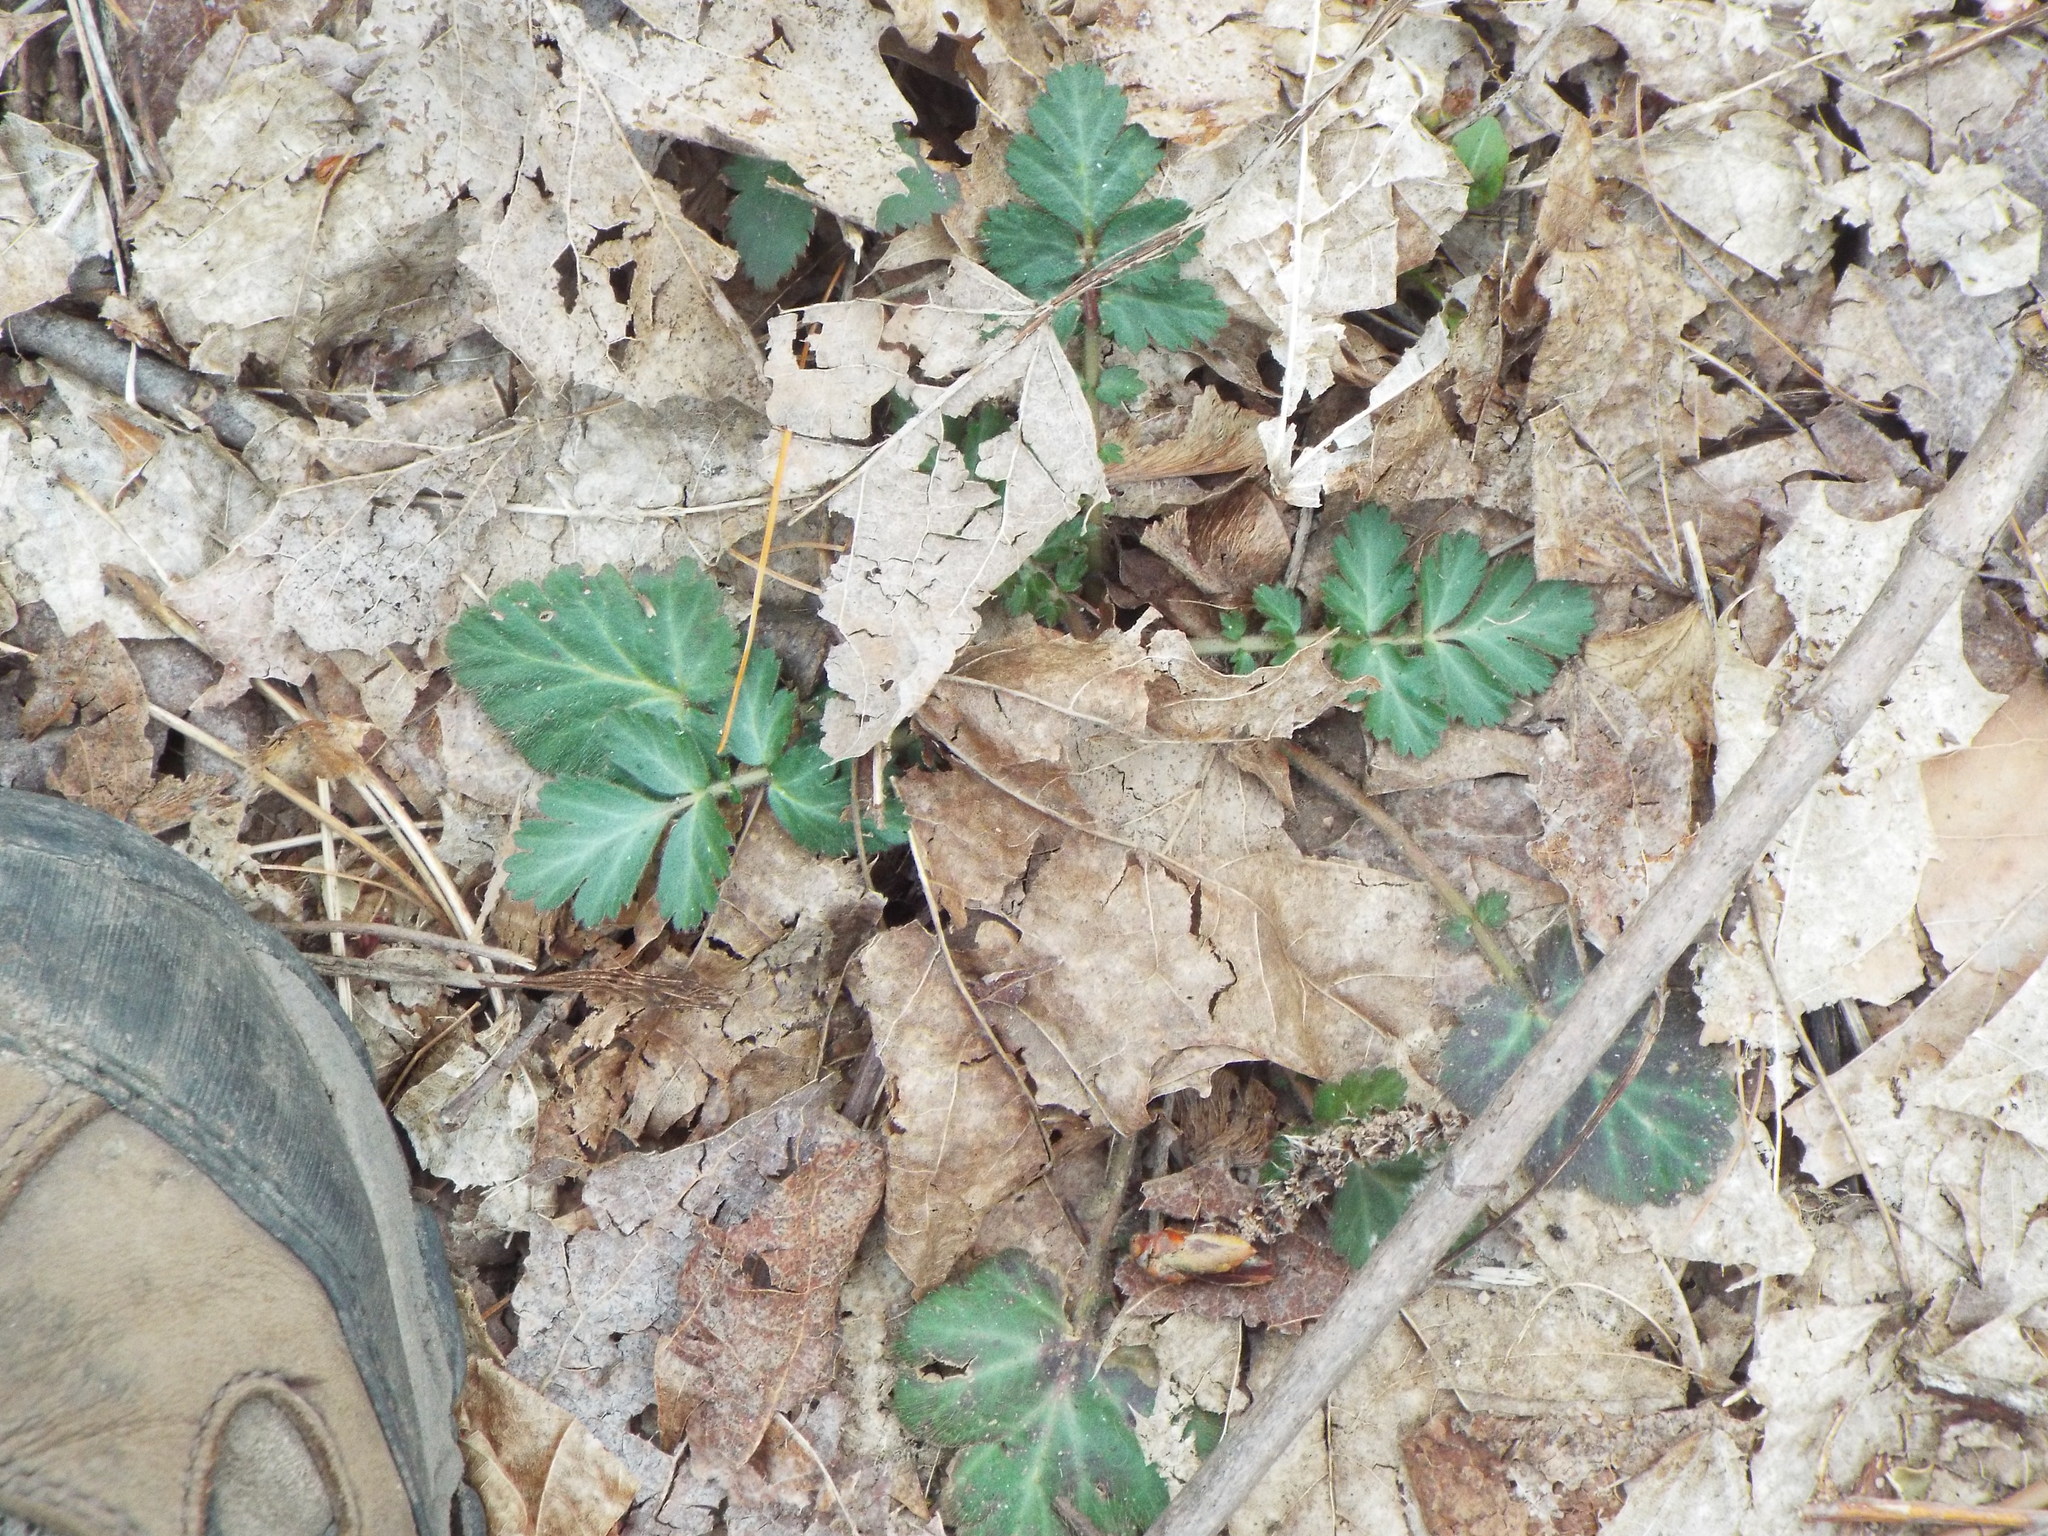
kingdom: Plantae
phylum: Tracheophyta
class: Magnoliopsida
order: Rosales
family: Rosaceae
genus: Geum
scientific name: Geum canadense
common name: White avens
